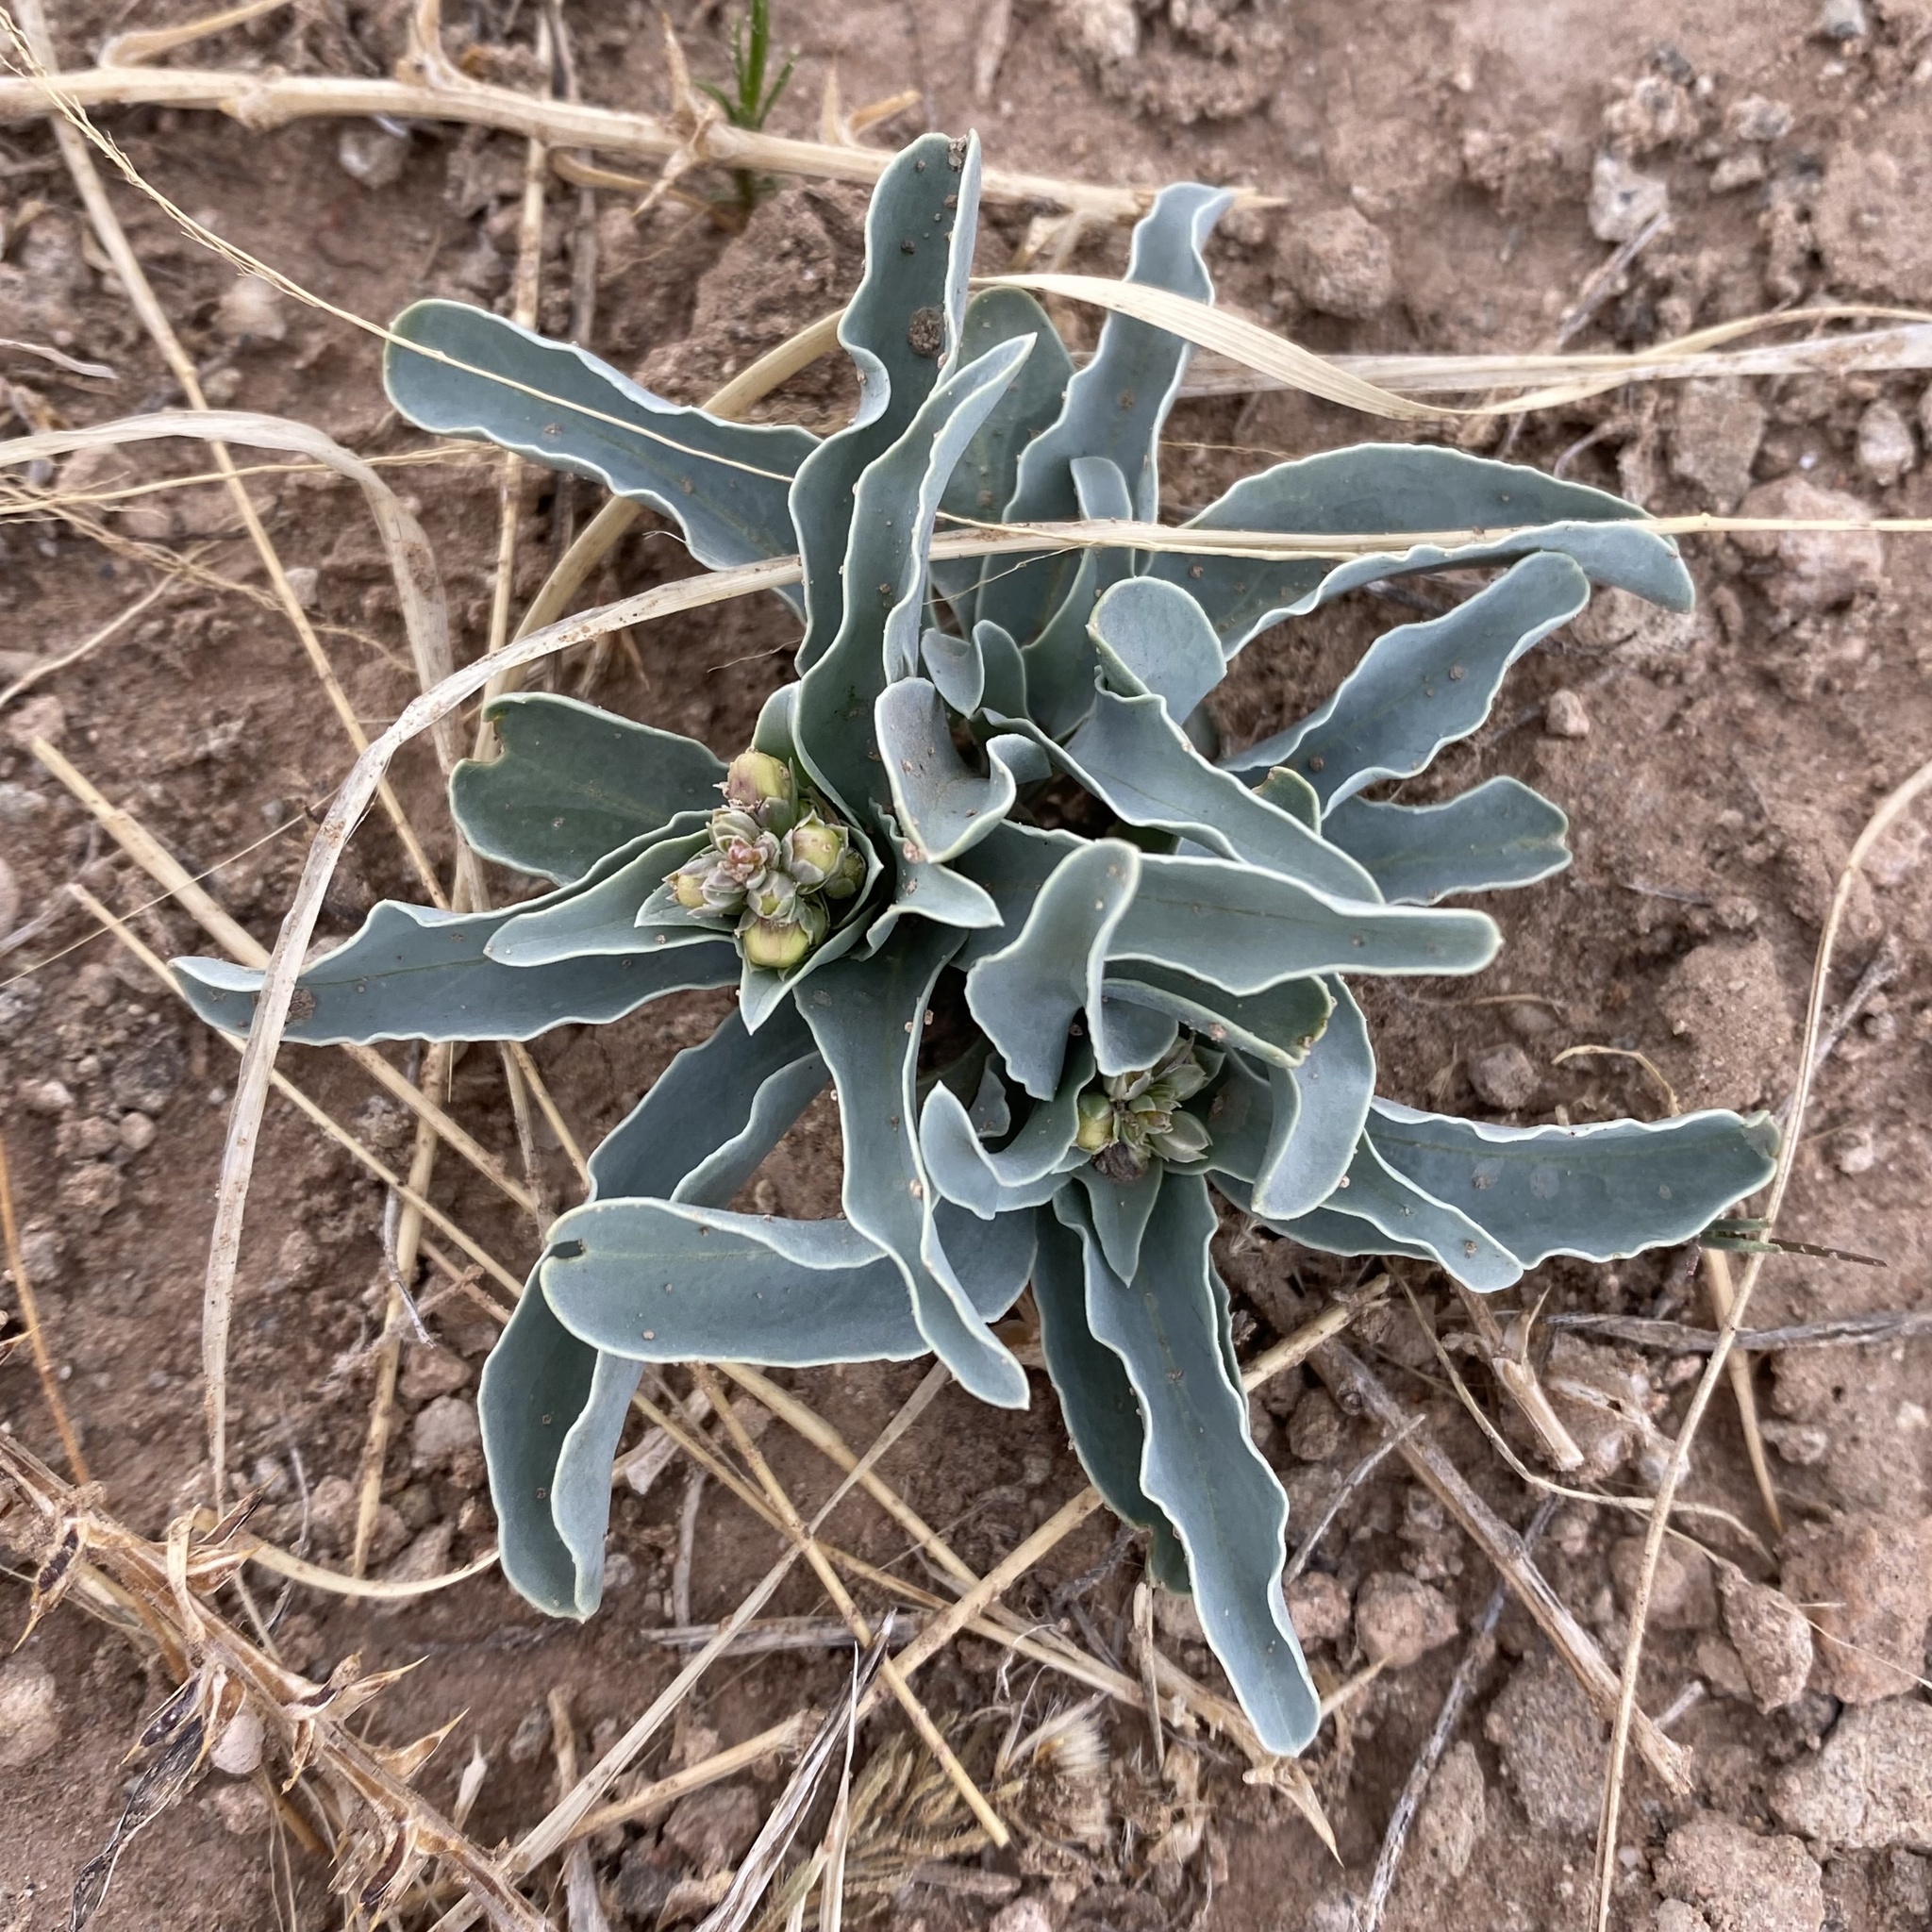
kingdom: Plantae
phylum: Tracheophyta
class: Magnoliopsida
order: Lamiales
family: Plantaginaceae
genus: Penstemon
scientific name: Penstemon fendleri
